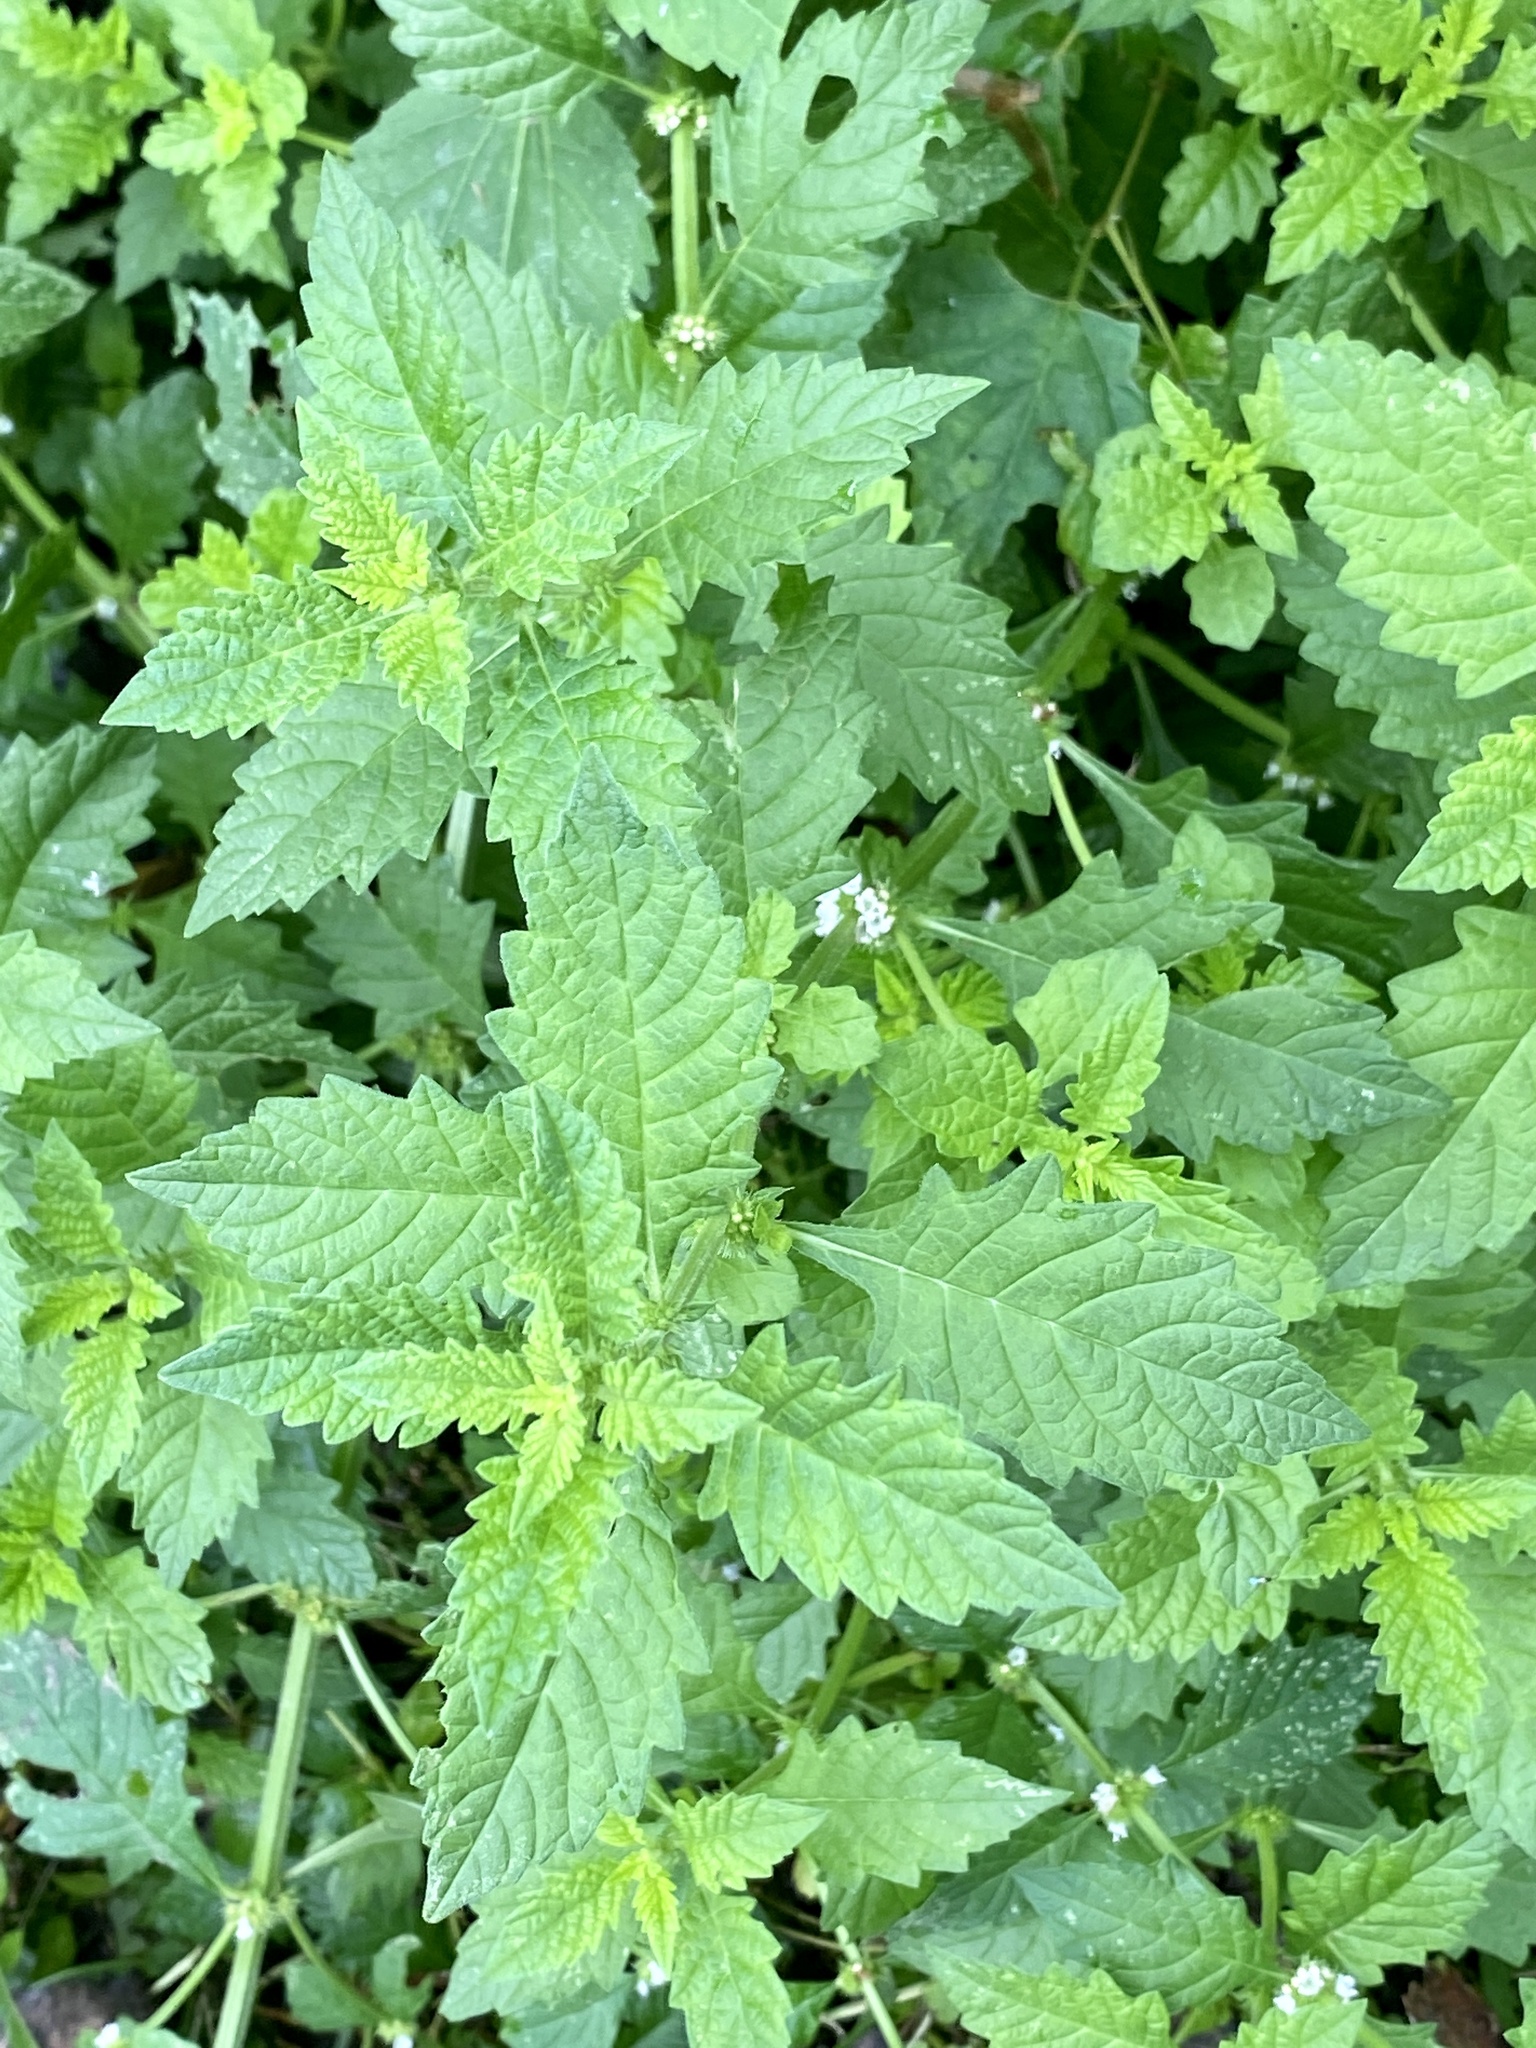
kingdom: Plantae
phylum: Tracheophyta
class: Magnoliopsida
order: Lamiales
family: Lamiaceae
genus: Lycopus
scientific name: Lycopus europaeus
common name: European bugleweed
